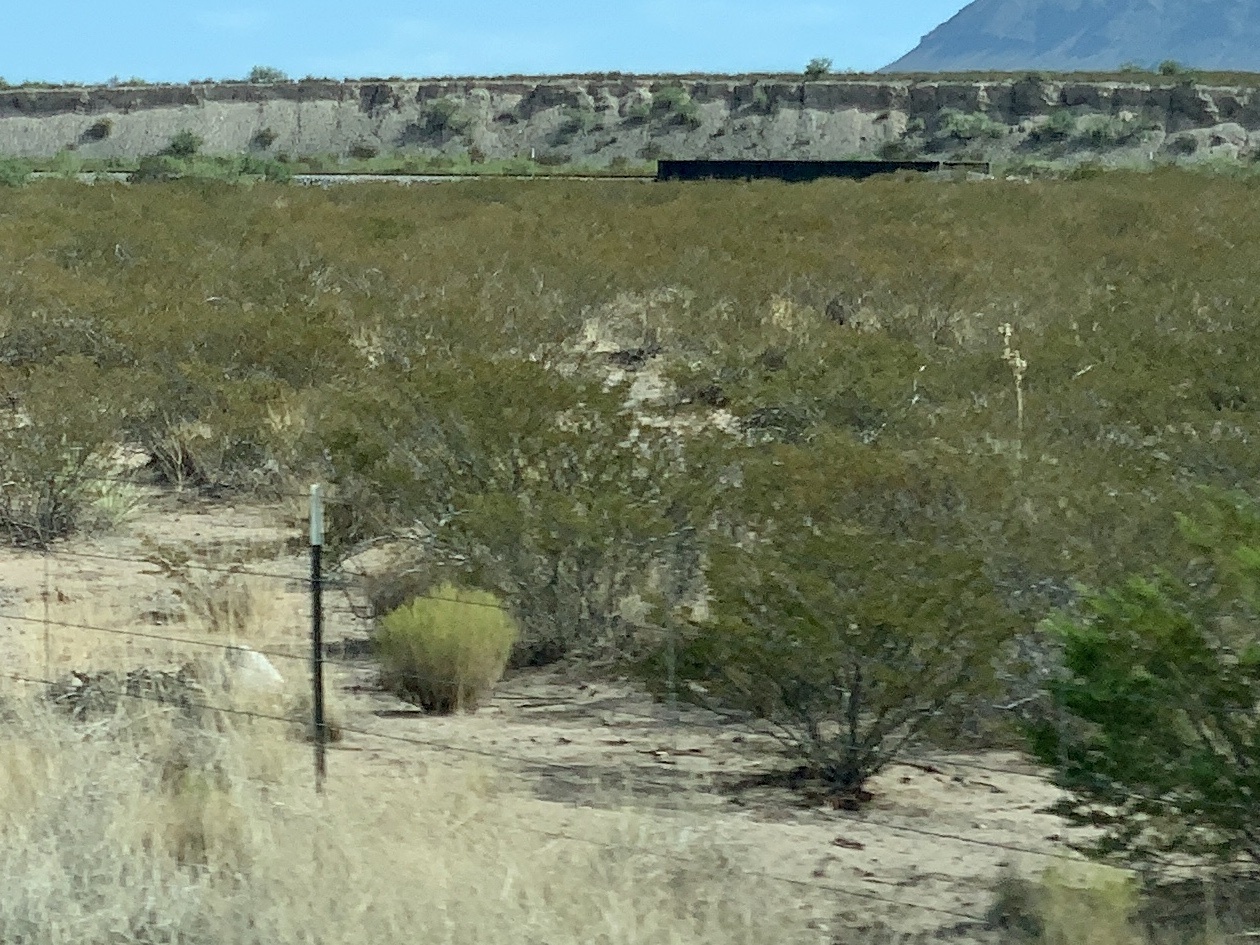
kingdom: Plantae
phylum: Tracheophyta
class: Magnoliopsida
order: Zygophyllales
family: Zygophyllaceae
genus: Larrea
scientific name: Larrea tridentata
